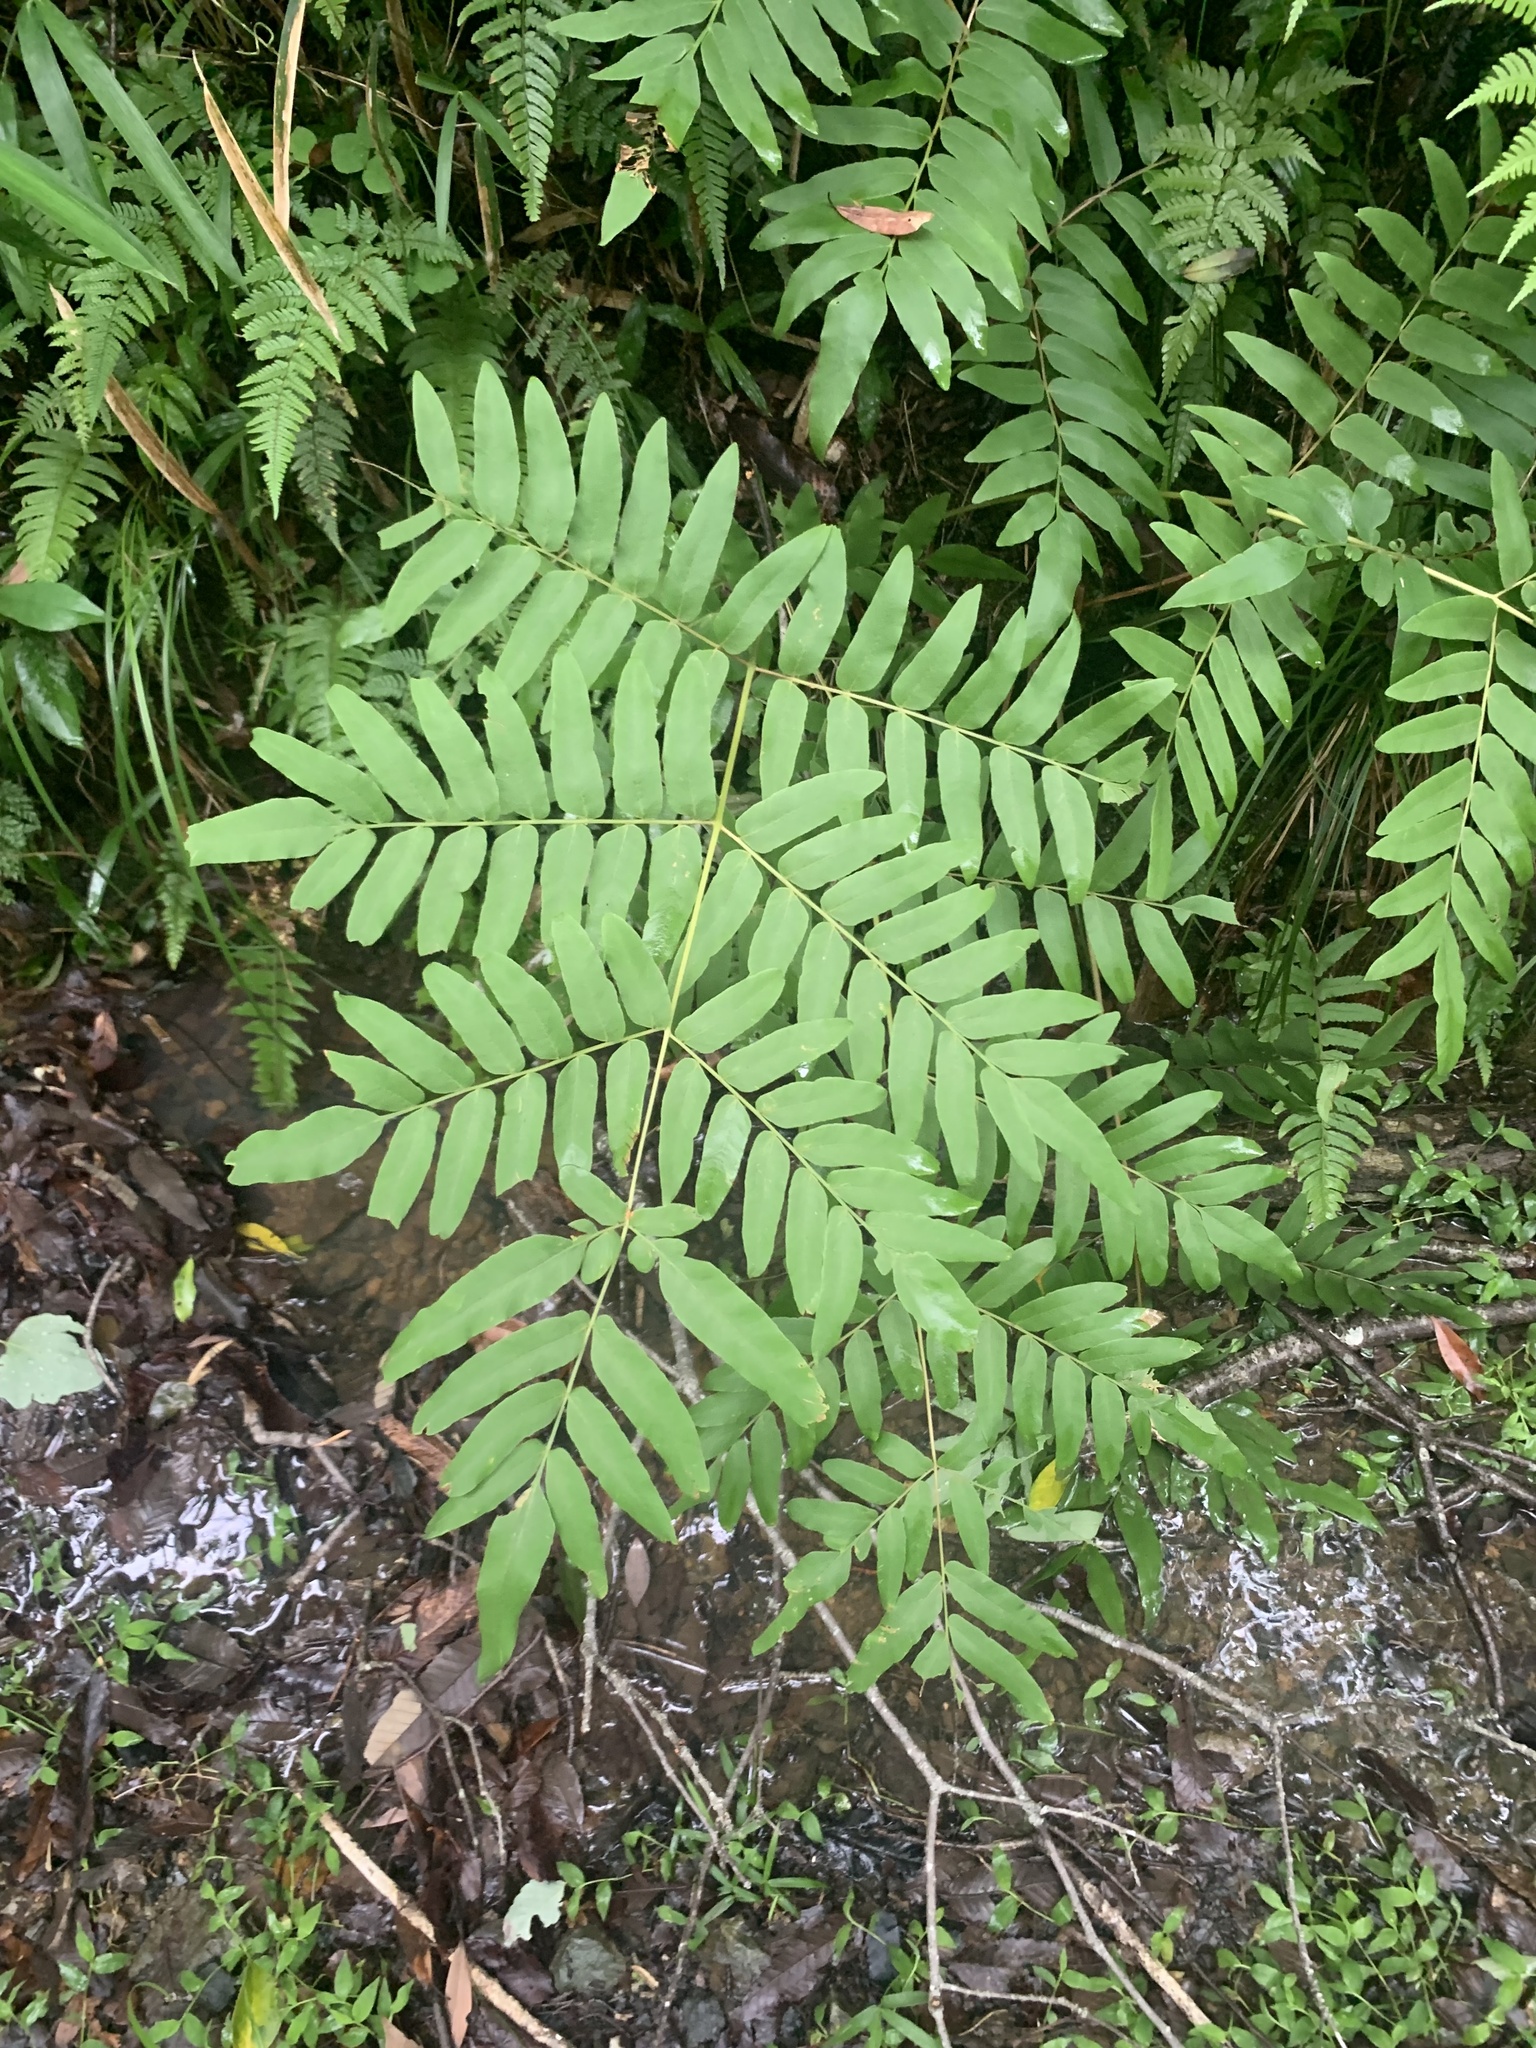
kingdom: Plantae
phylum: Tracheophyta
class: Polypodiopsida
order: Osmundales
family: Osmundaceae
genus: Osmunda
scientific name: Osmunda japonica
